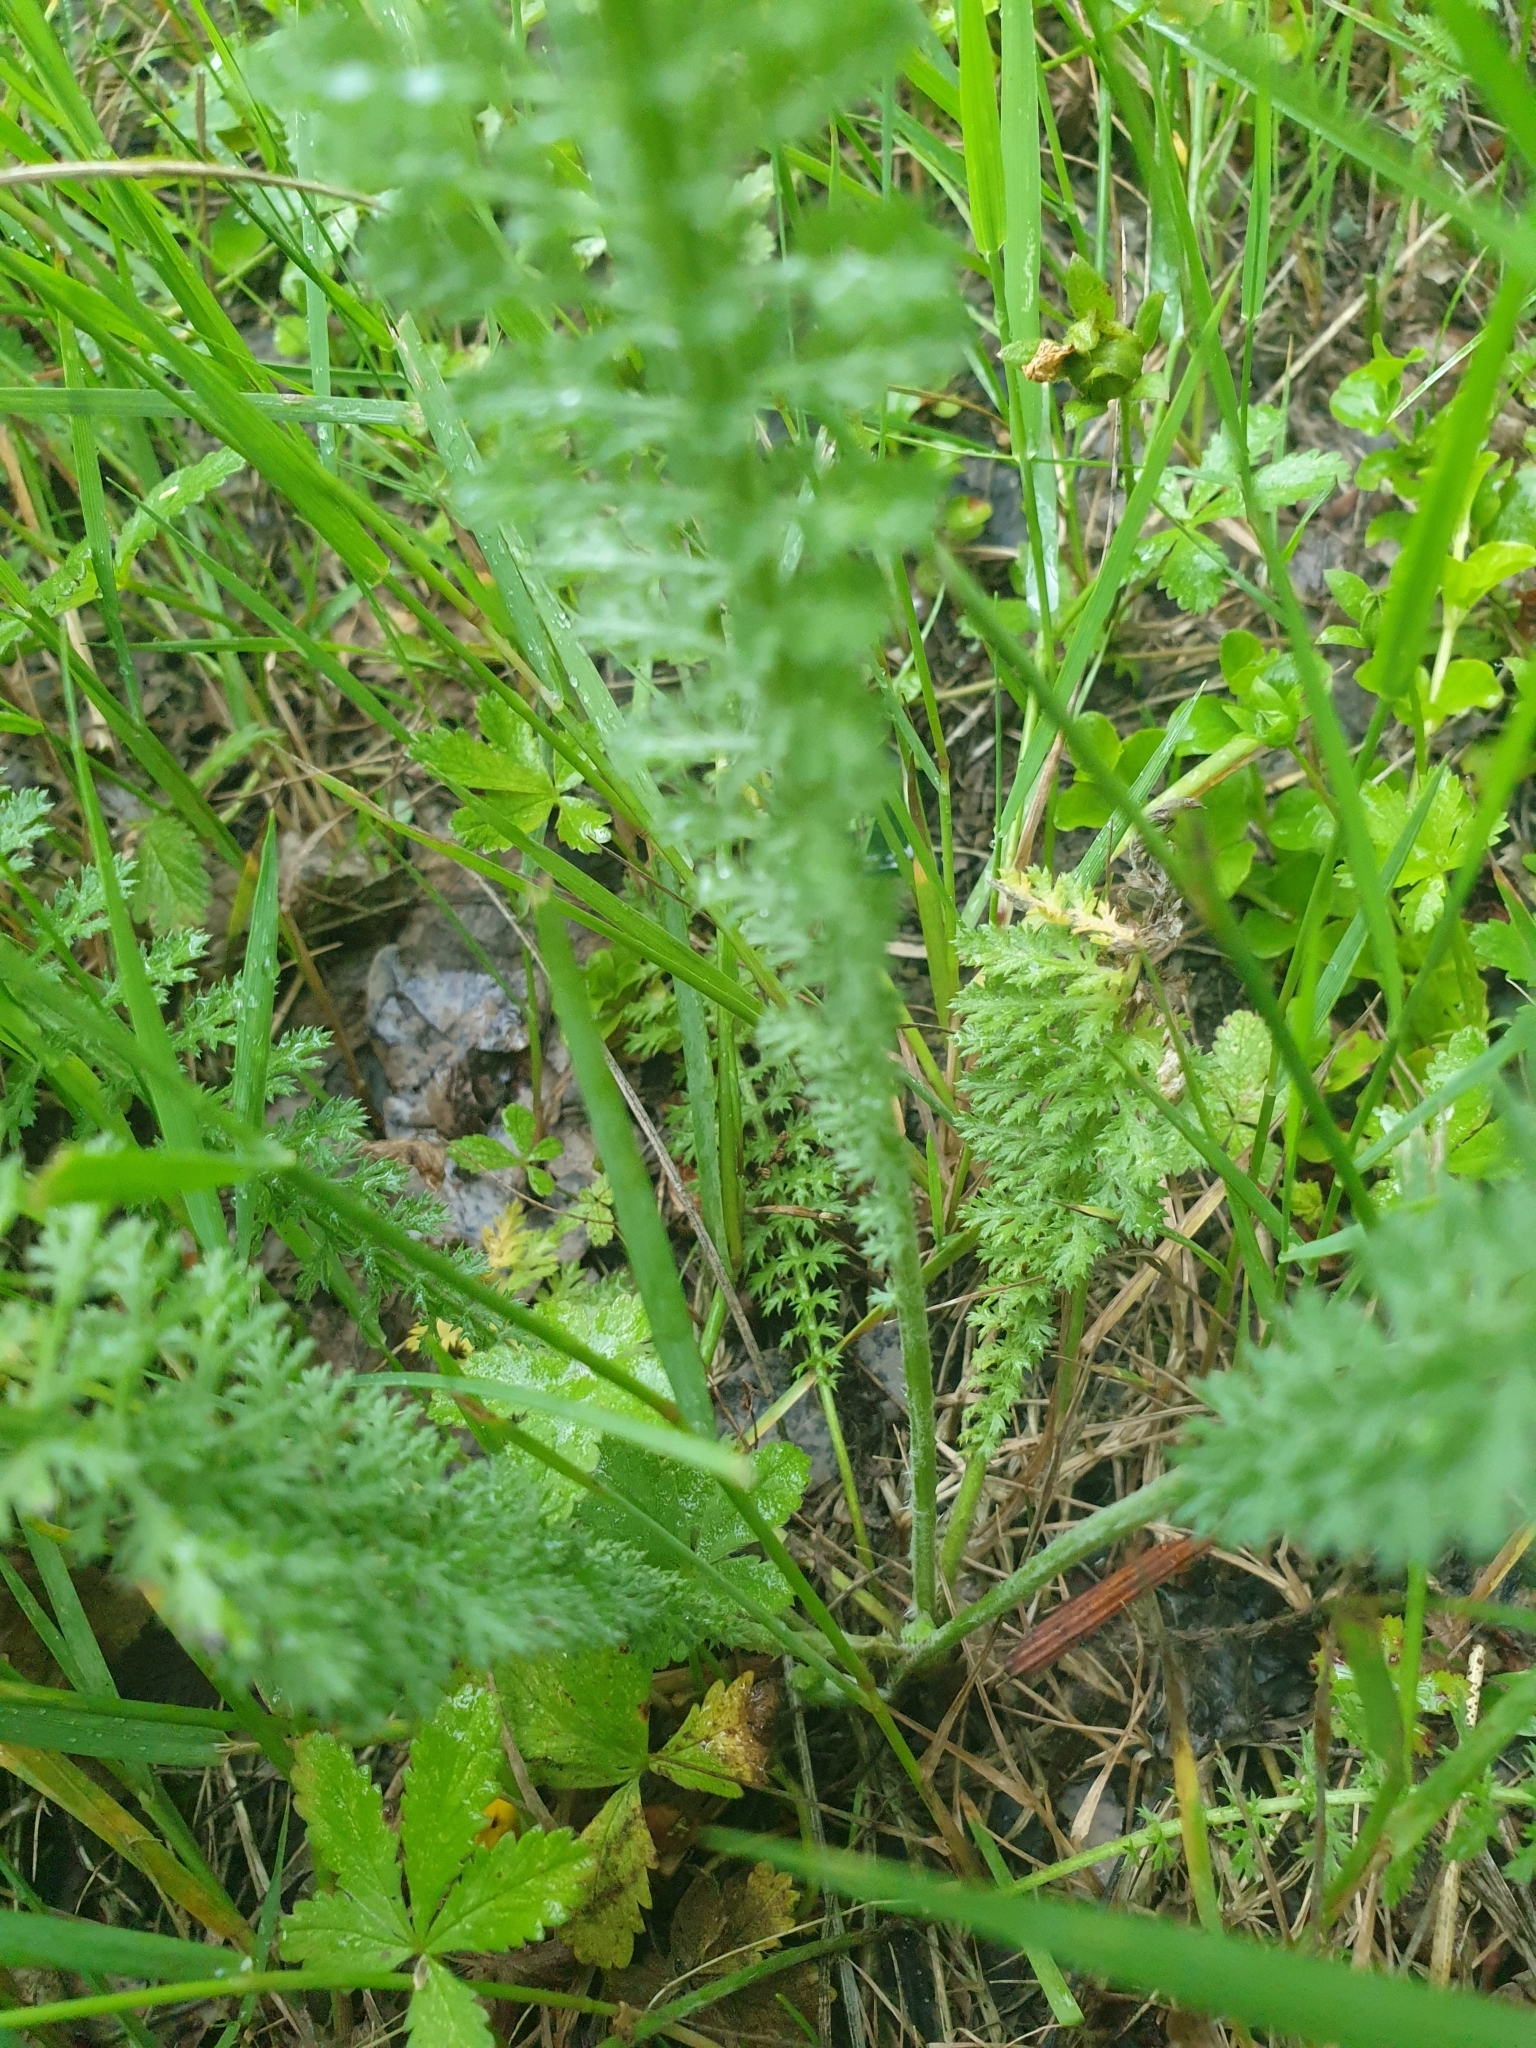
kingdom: Plantae
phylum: Tracheophyta
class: Magnoliopsida
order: Asterales
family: Asteraceae
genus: Achillea
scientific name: Achillea millefolium
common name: Yarrow
